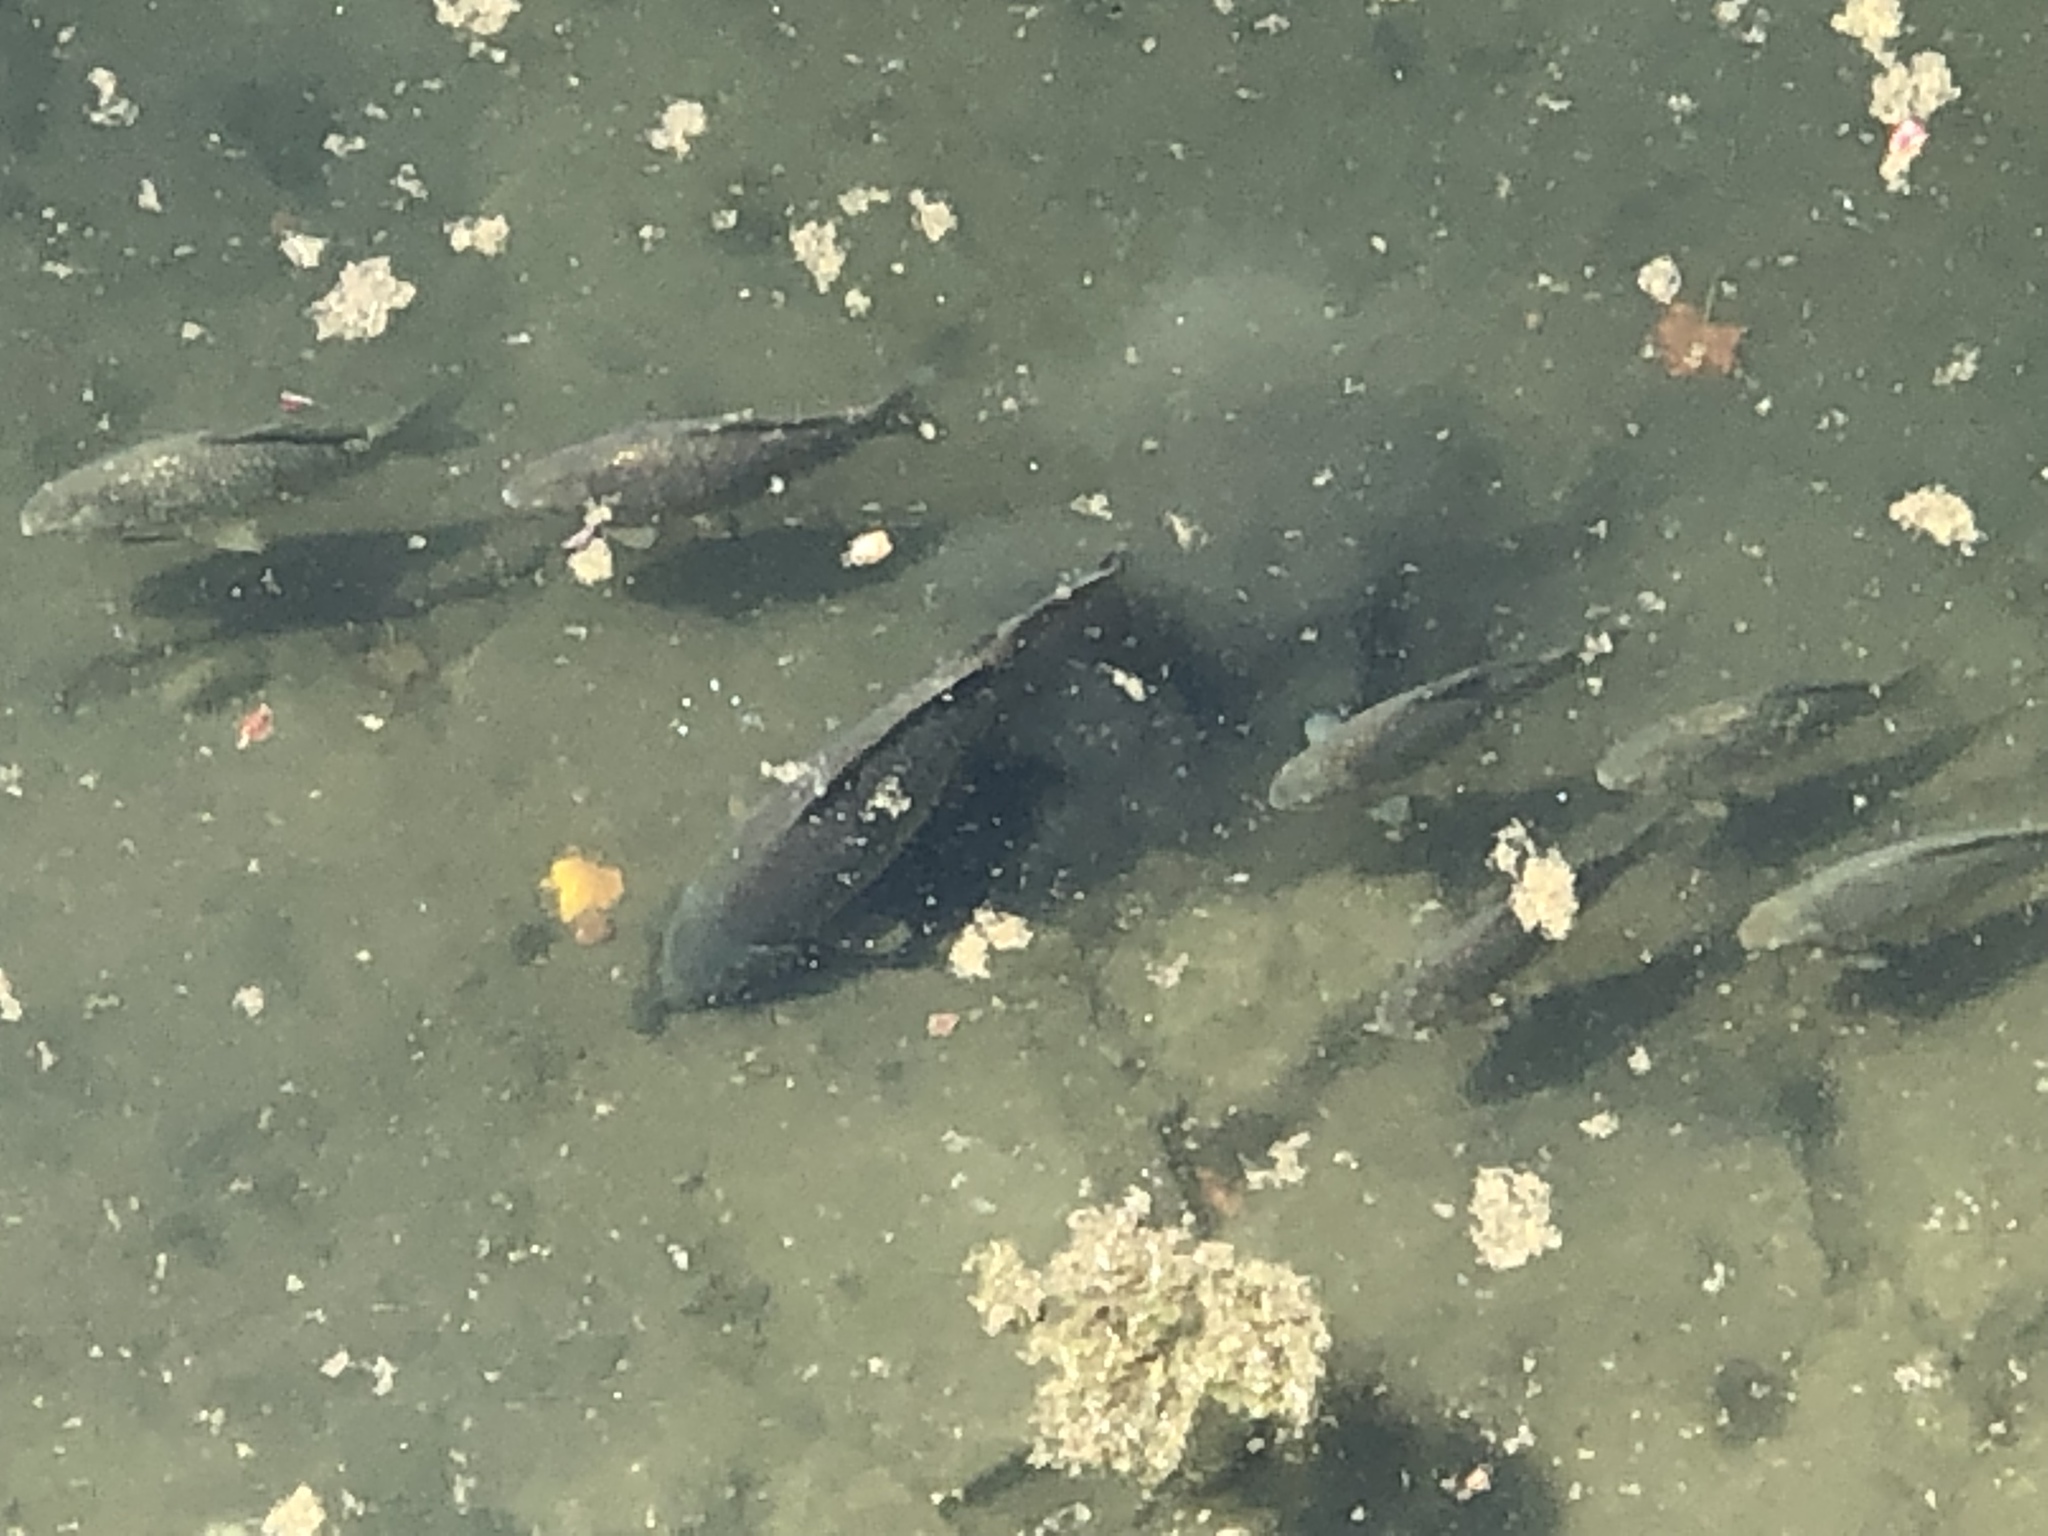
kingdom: Animalia
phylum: Chordata
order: Cypriniformes
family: Cyprinidae
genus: Cyprinus
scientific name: Cyprinus carpio
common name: Common carp
